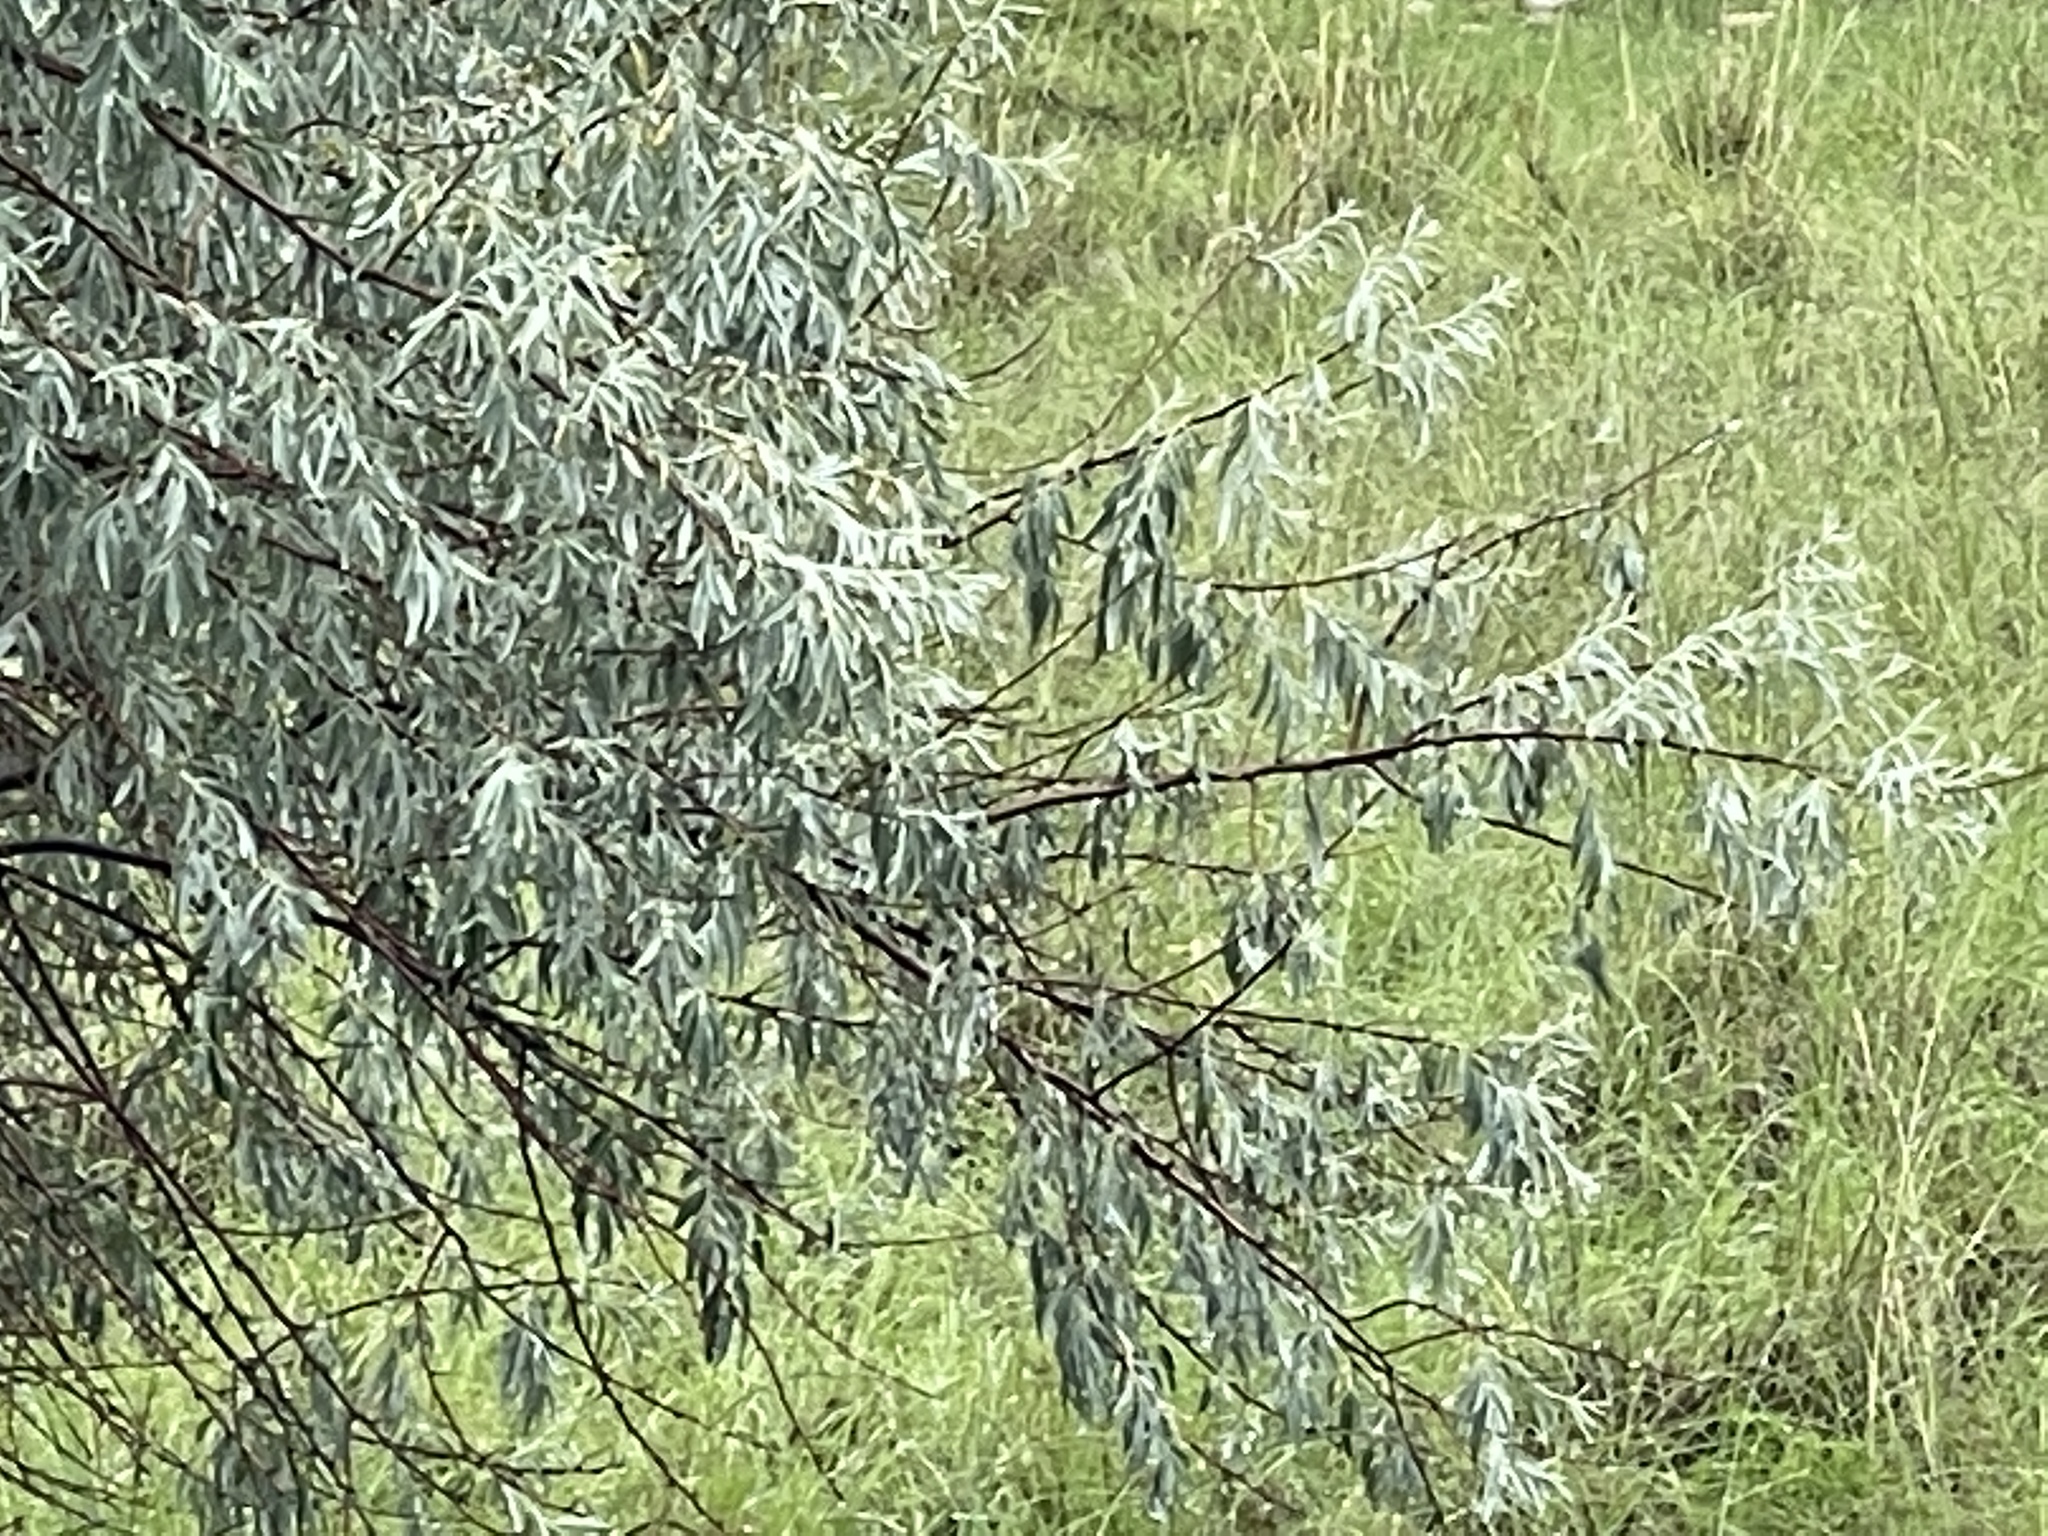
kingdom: Plantae
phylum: Tracheophyta
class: Magnoliopsida
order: Rosales
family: Elaeagnaceae
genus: Elaeagnus
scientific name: Elaeagnus angustifolia
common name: Russian olive
